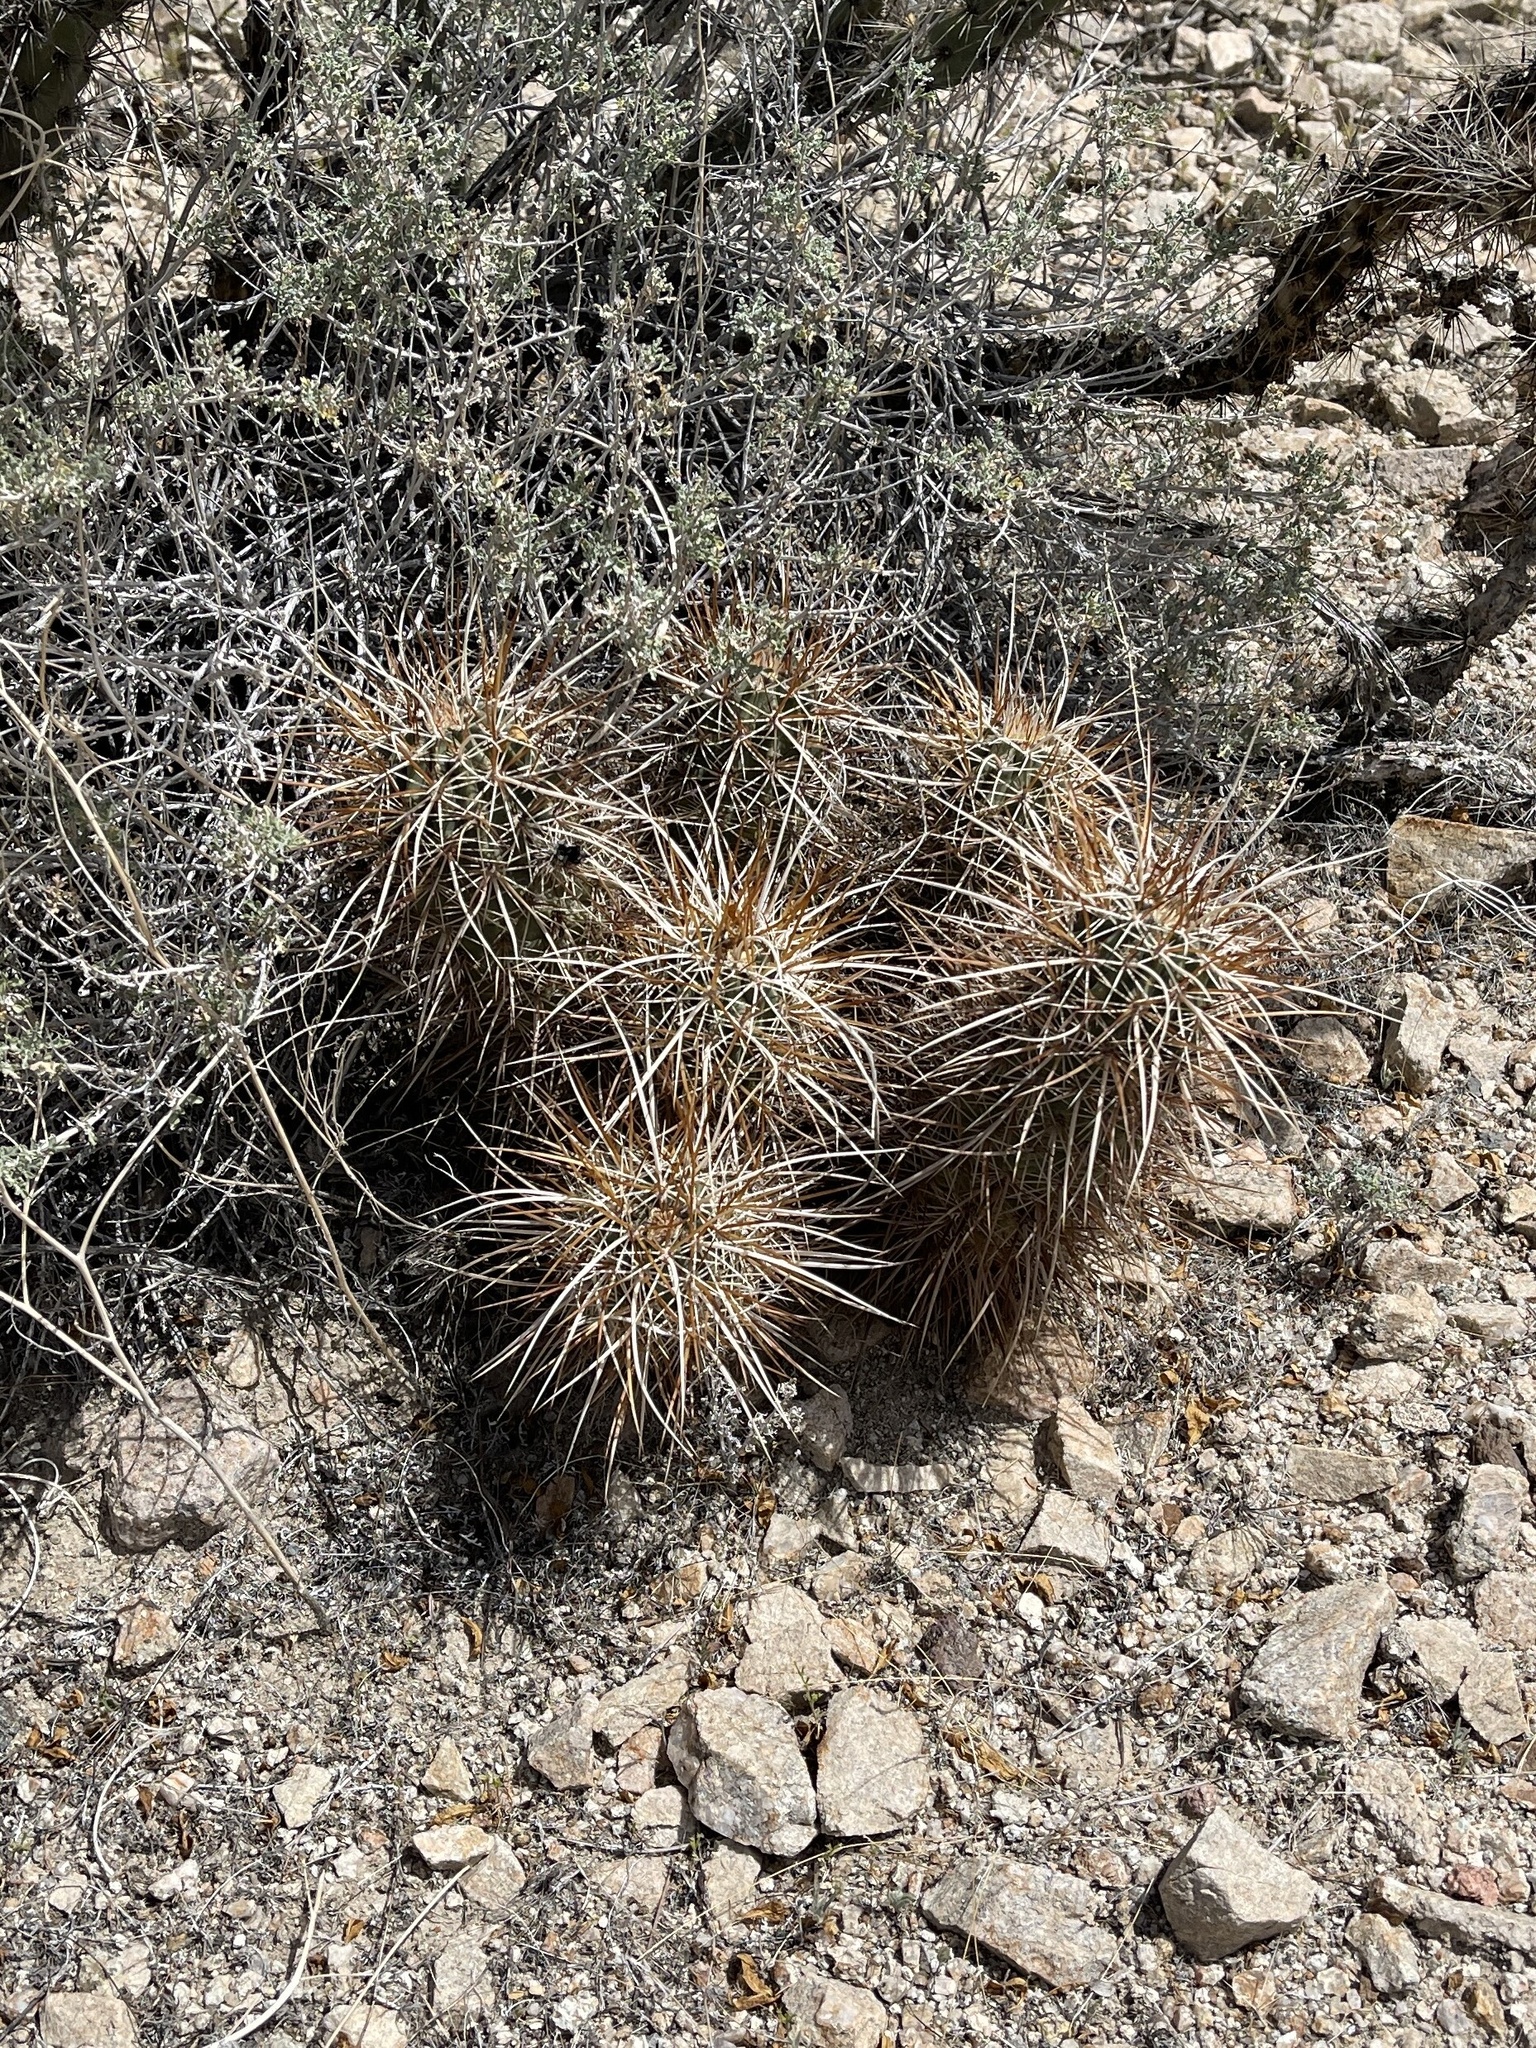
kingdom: Plantae
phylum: Tracheophyta
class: Magnoliopsida
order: Caryophyllales
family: Cactaceae
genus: Echinocereus
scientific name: Echinocereus engelmannii
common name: Engelmann's hedgehog cactus
